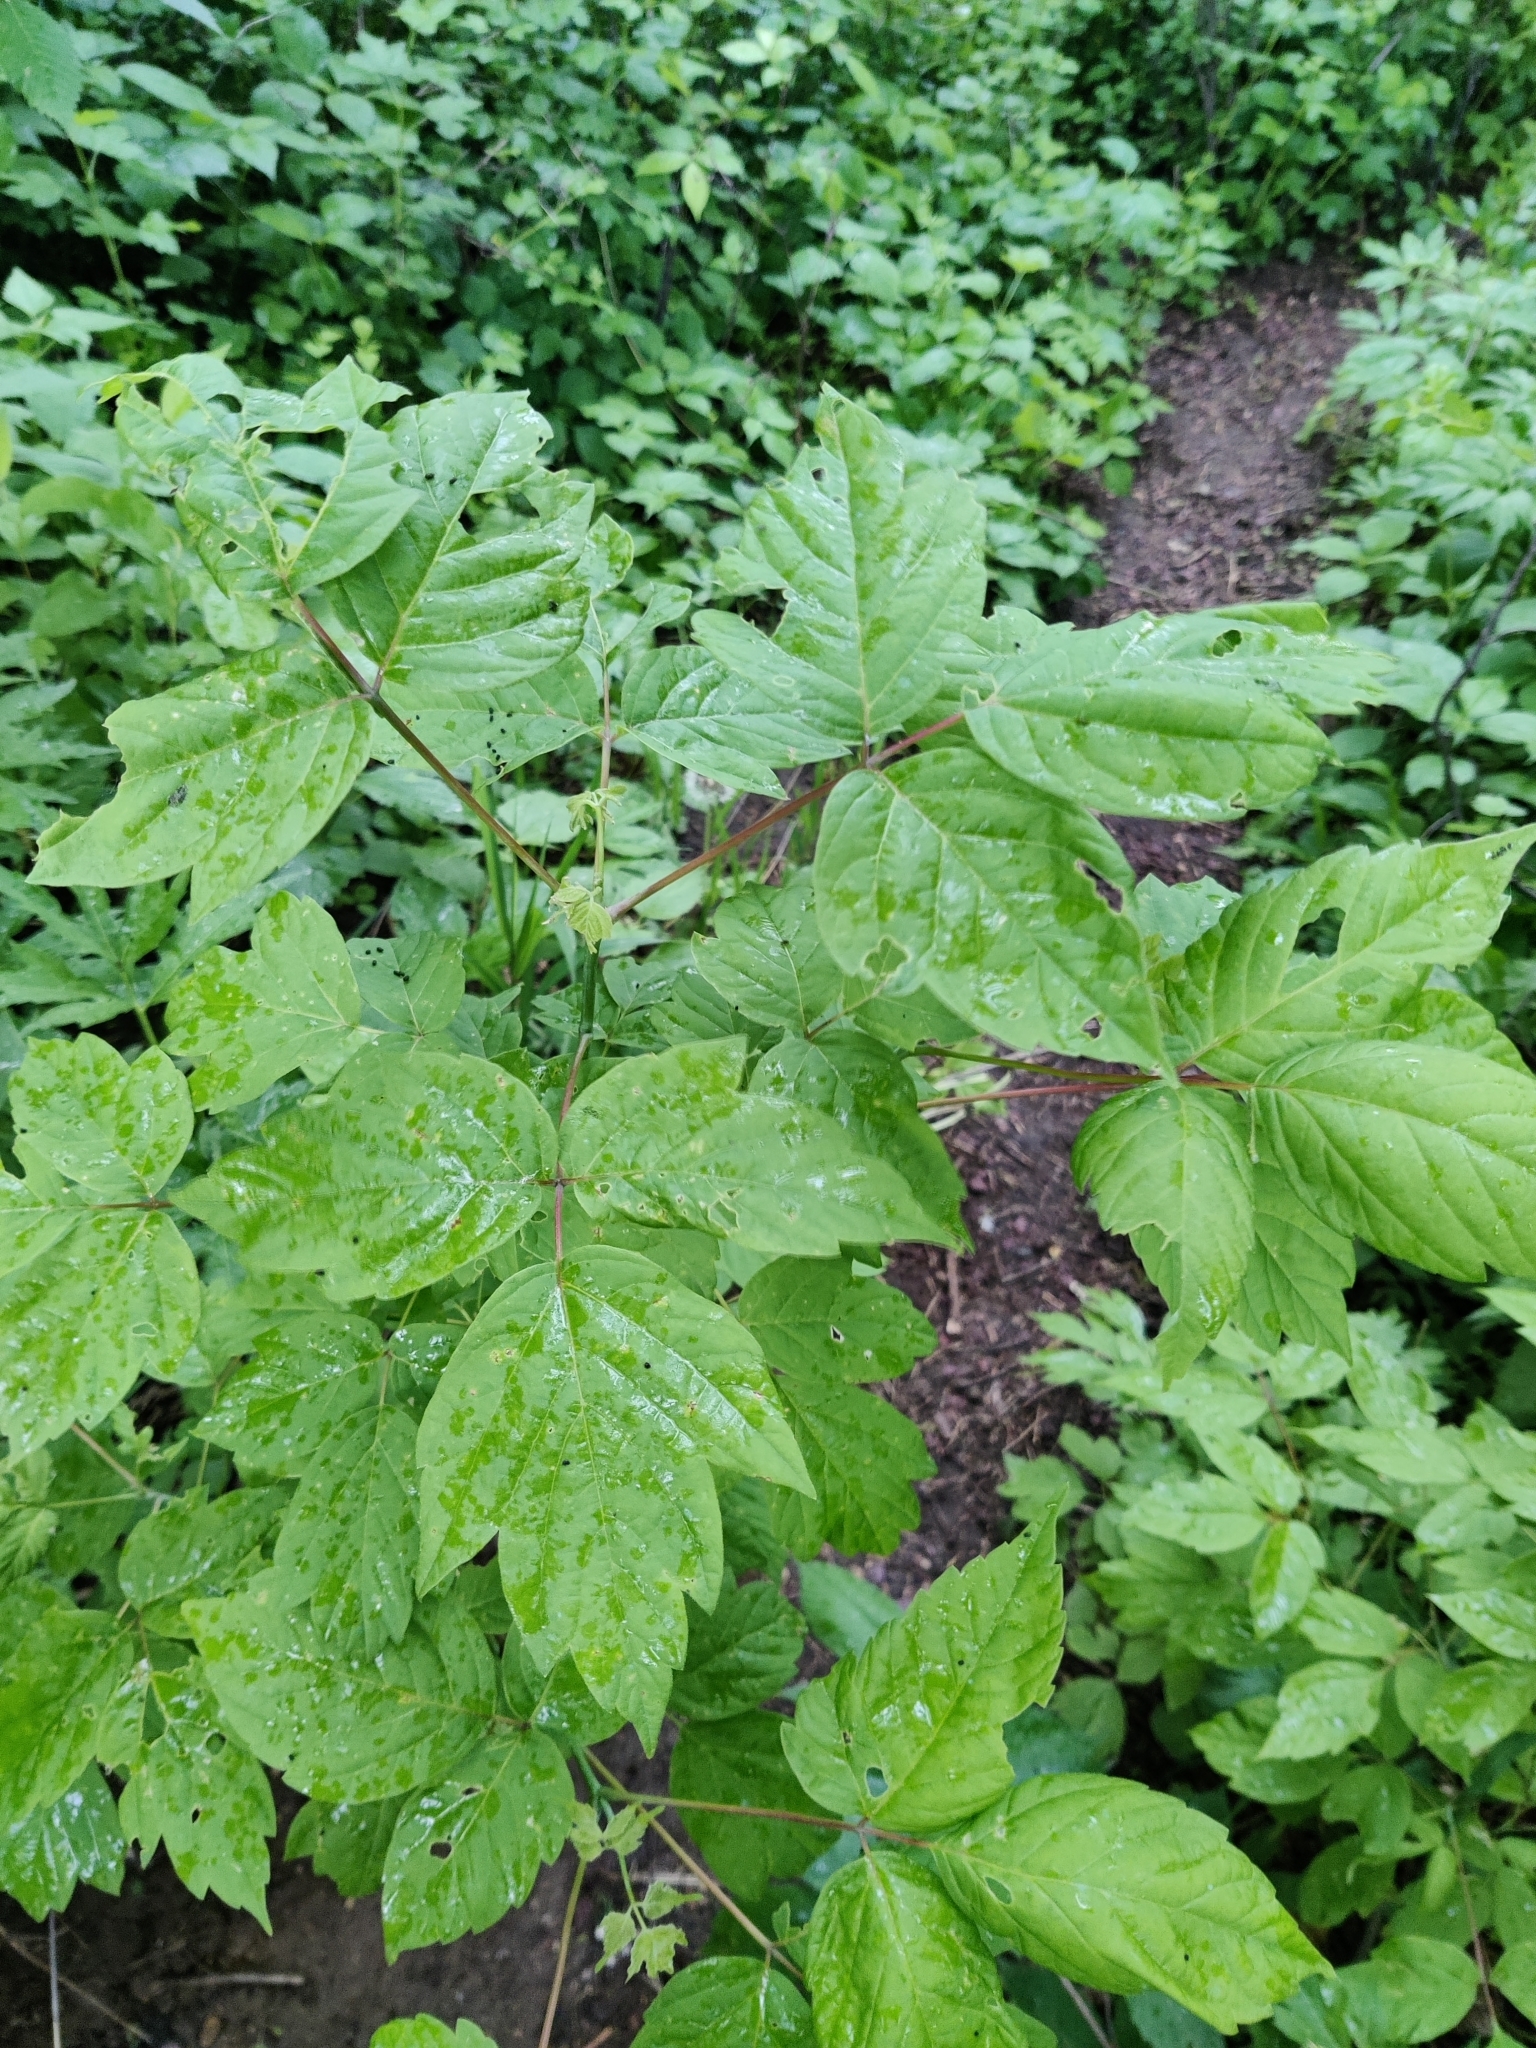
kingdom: Plantae
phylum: Tracheophyta
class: Magnoliopsida
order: Sapindales
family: Sapindaceae
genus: Acer
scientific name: Acer negundo
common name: Ashleaf maple
